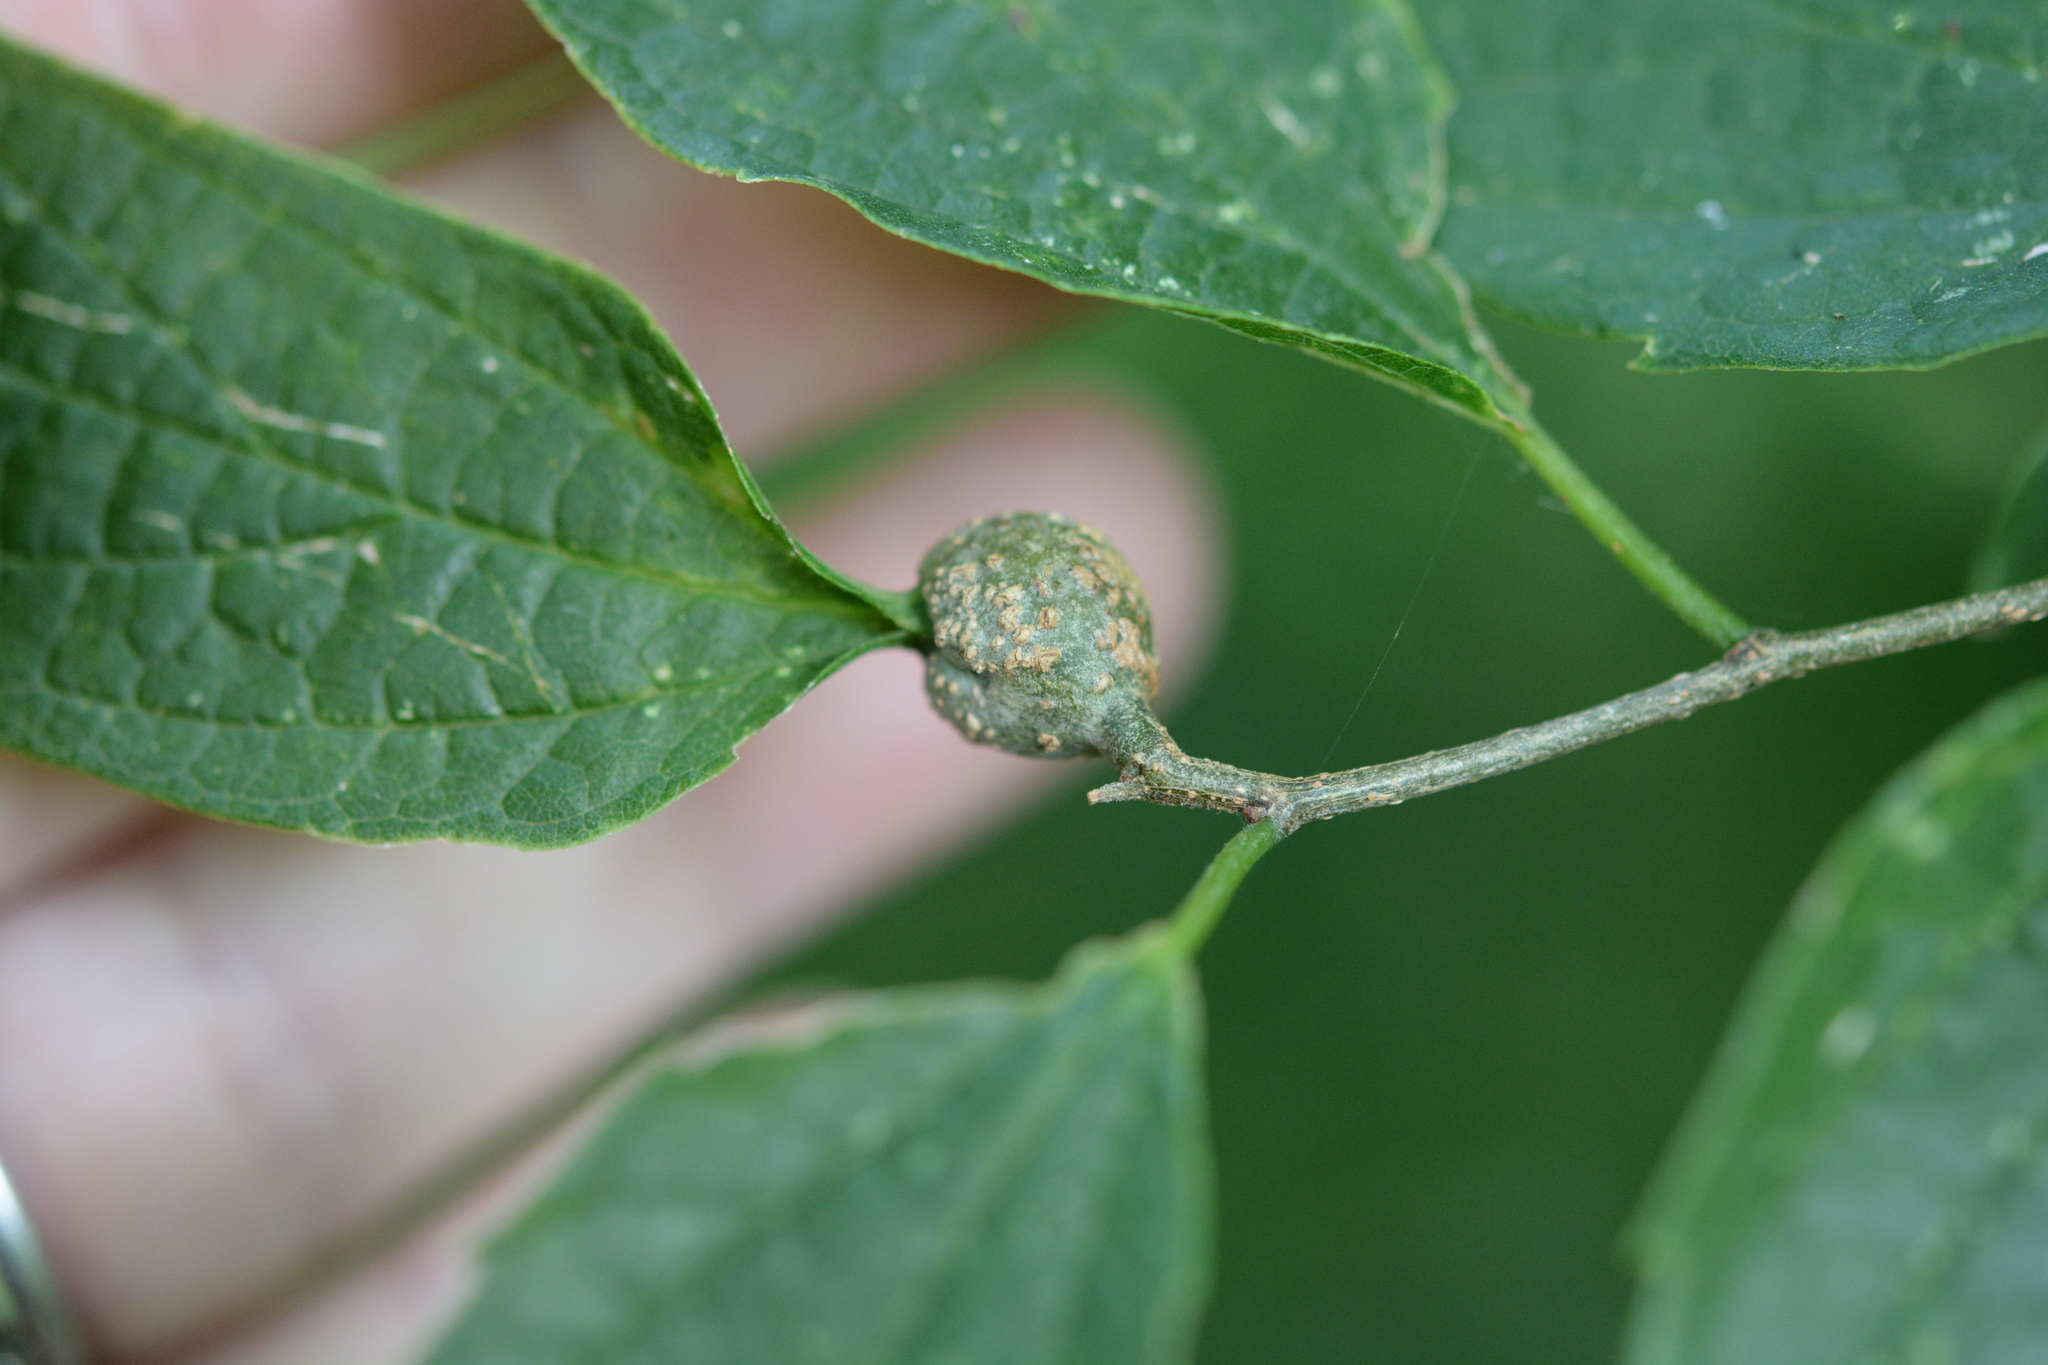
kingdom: Animalia
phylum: Arthropoda
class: Insecta
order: Hemiptera
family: Aphalaridae
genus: Pachypsylla
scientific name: Pachypsylla venusta
